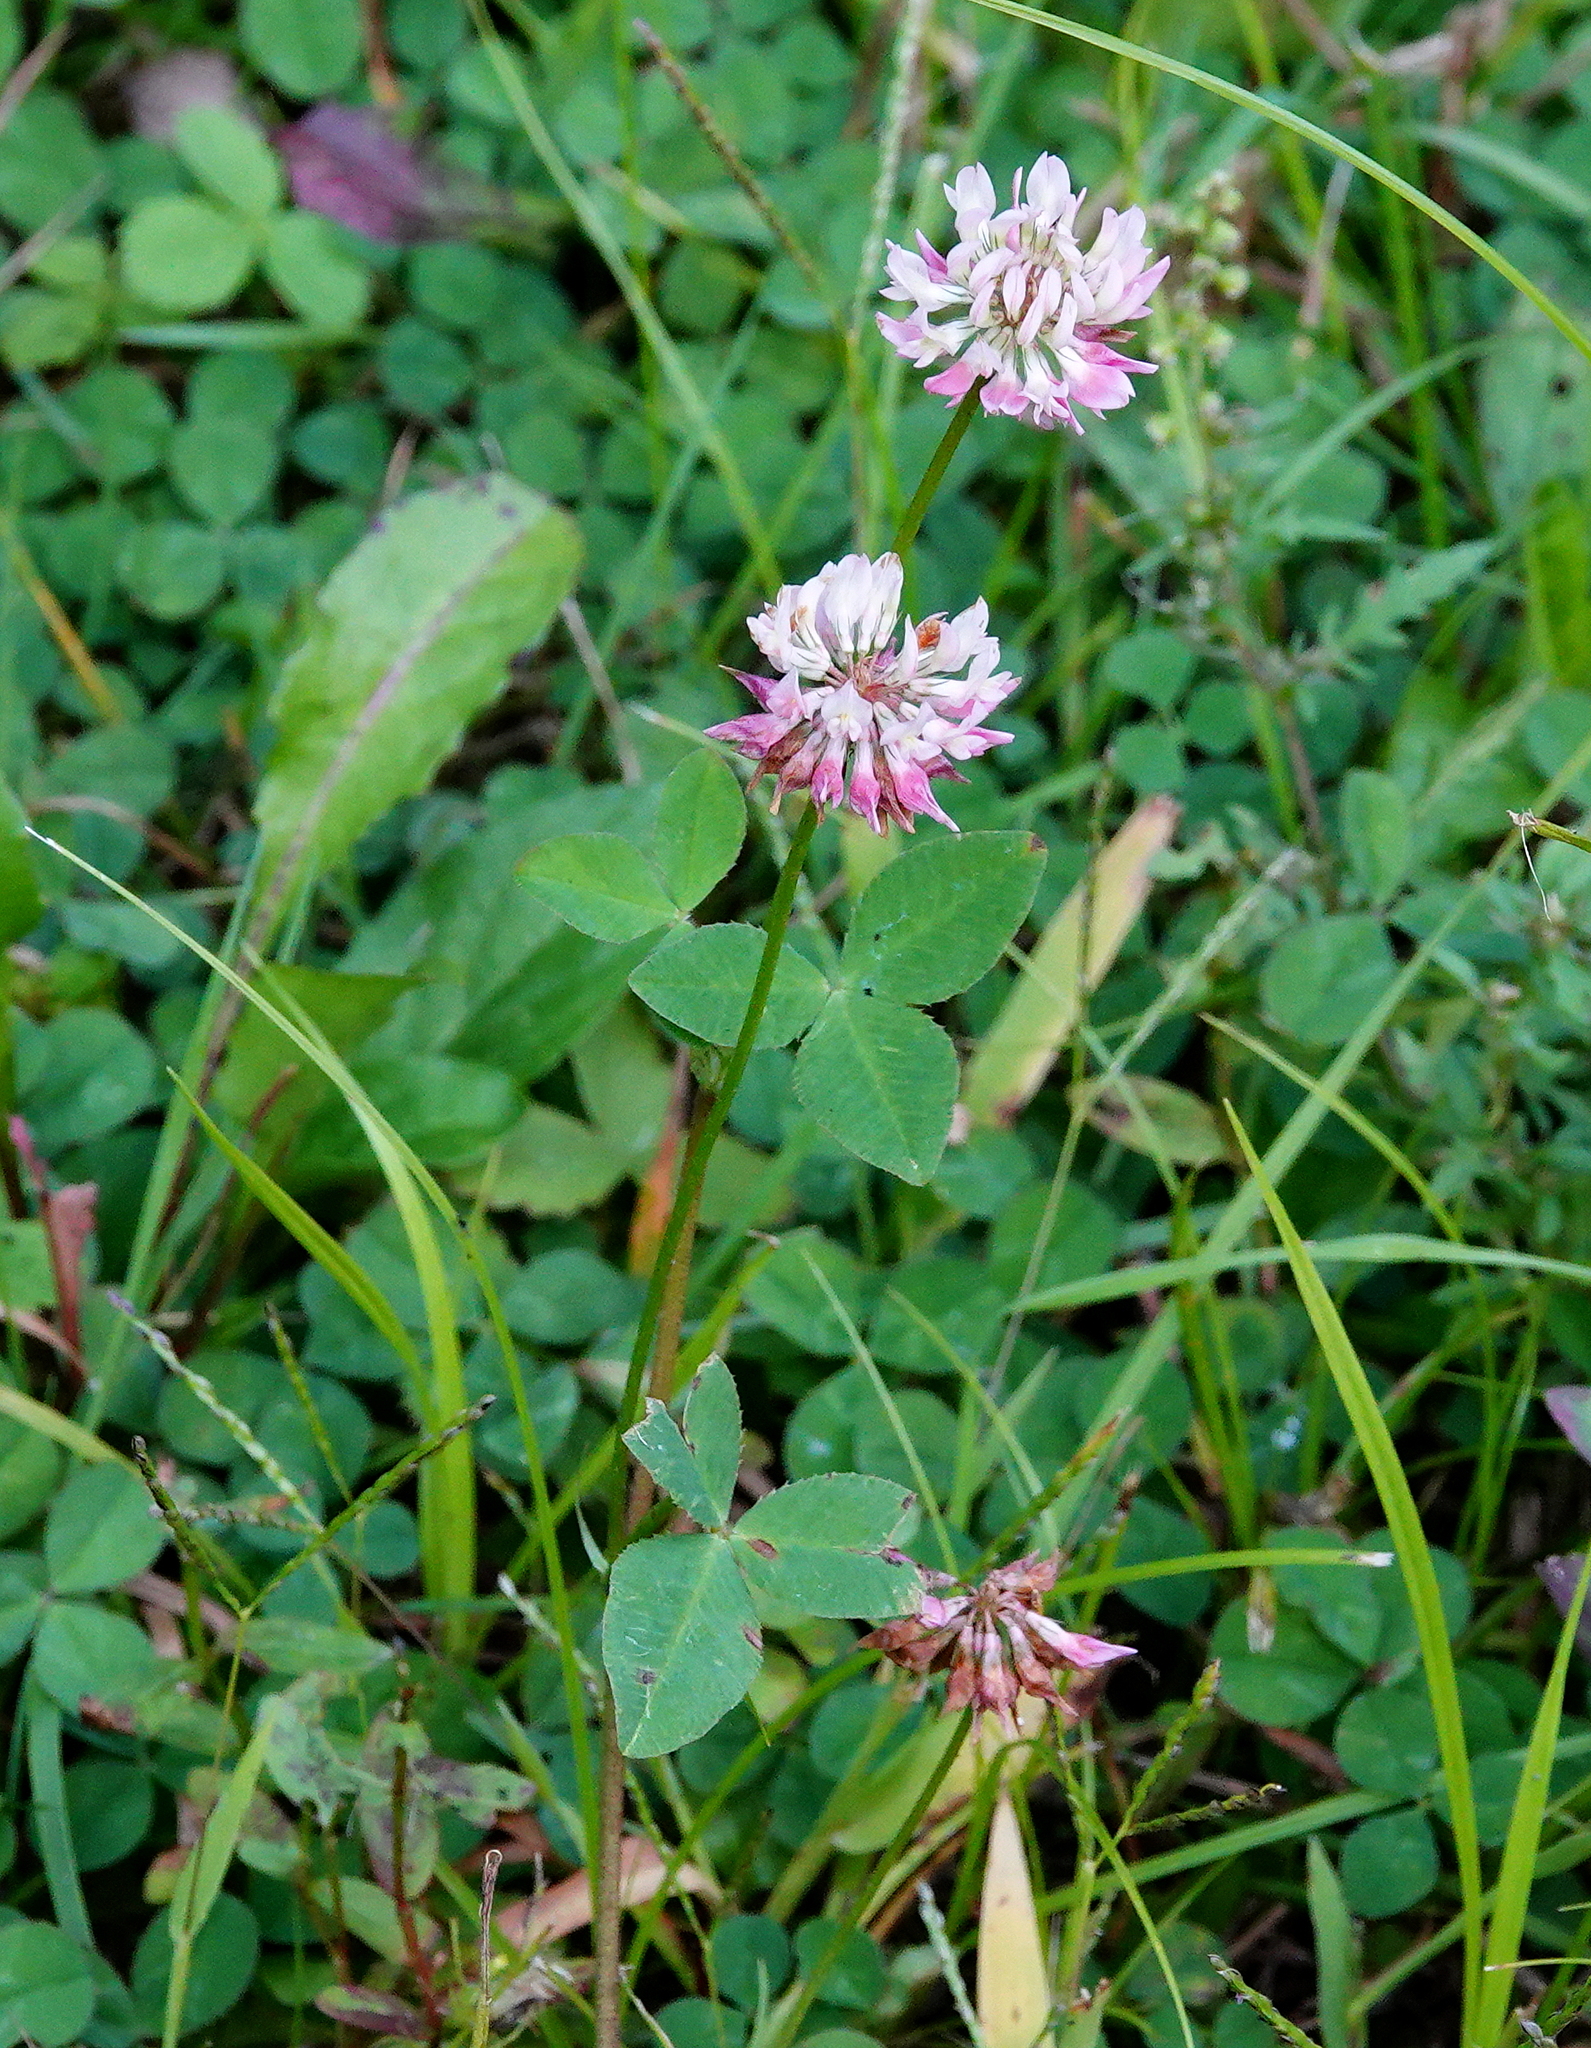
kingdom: Plantae
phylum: Tracheophyta
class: Magnoliopsida
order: Fabales
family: Fabaceae
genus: Trifolium
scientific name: Trifolium hybridum
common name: Alsike clover
